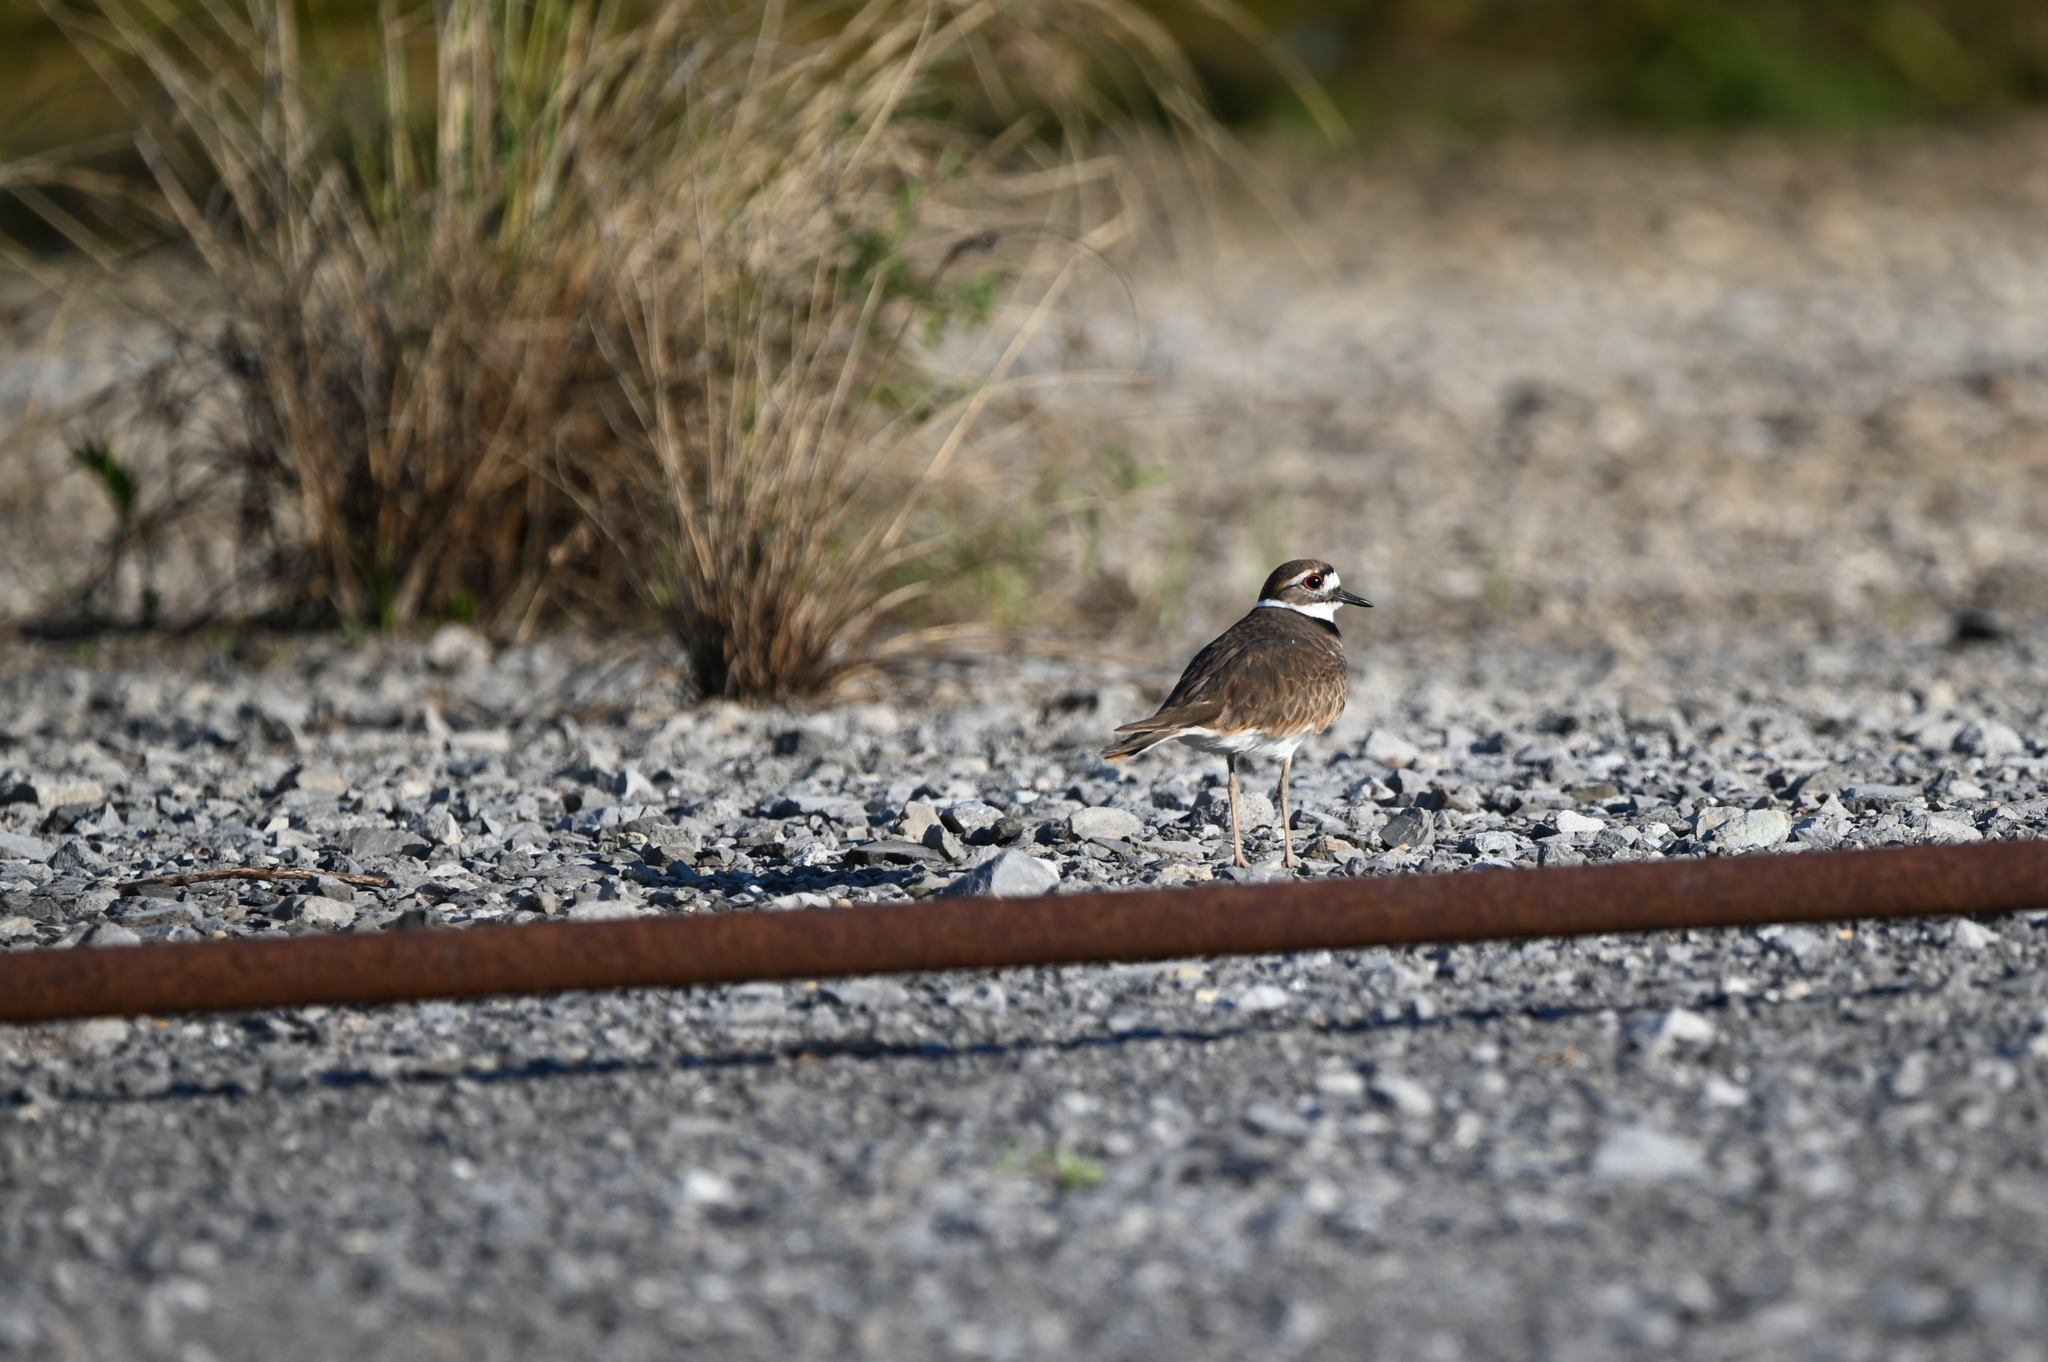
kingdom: Animalia
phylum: Chordata
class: Aves
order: Charadriiformes
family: Charadriidae
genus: Charadrius
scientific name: Charadrius vociferus
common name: Killdeer
